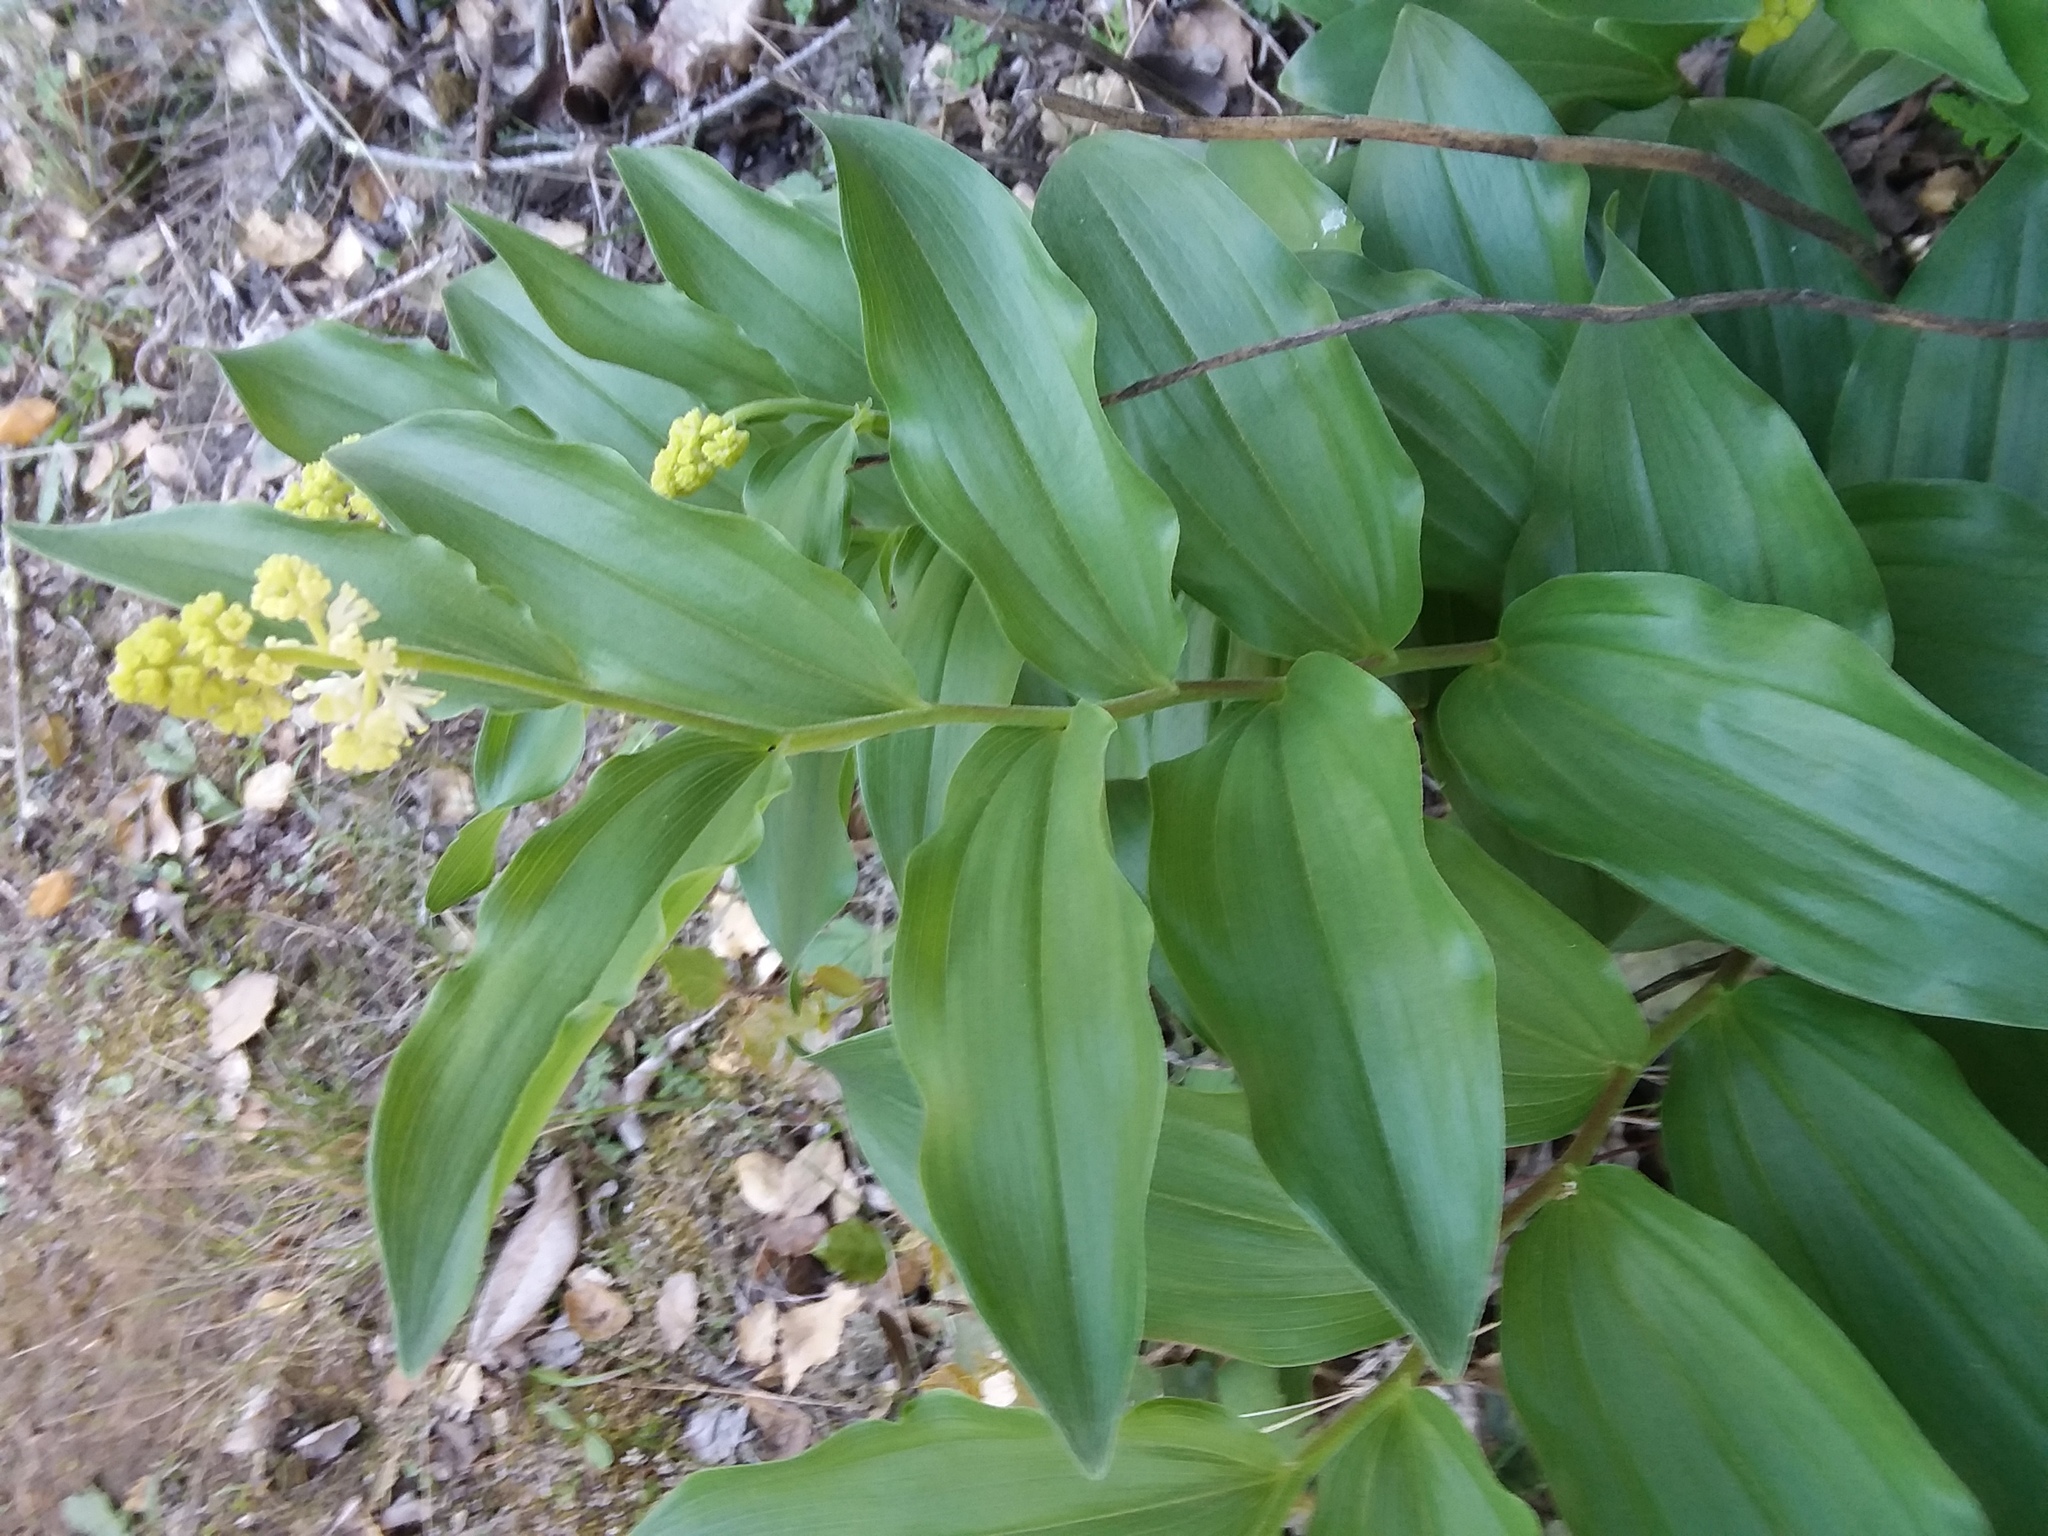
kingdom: Plantae
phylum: Tracheophyta
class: Liliopsida
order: Asparagales
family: Asparagaceae
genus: Maianthemum
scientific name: Maianthemum racemosum
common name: False spikenard
